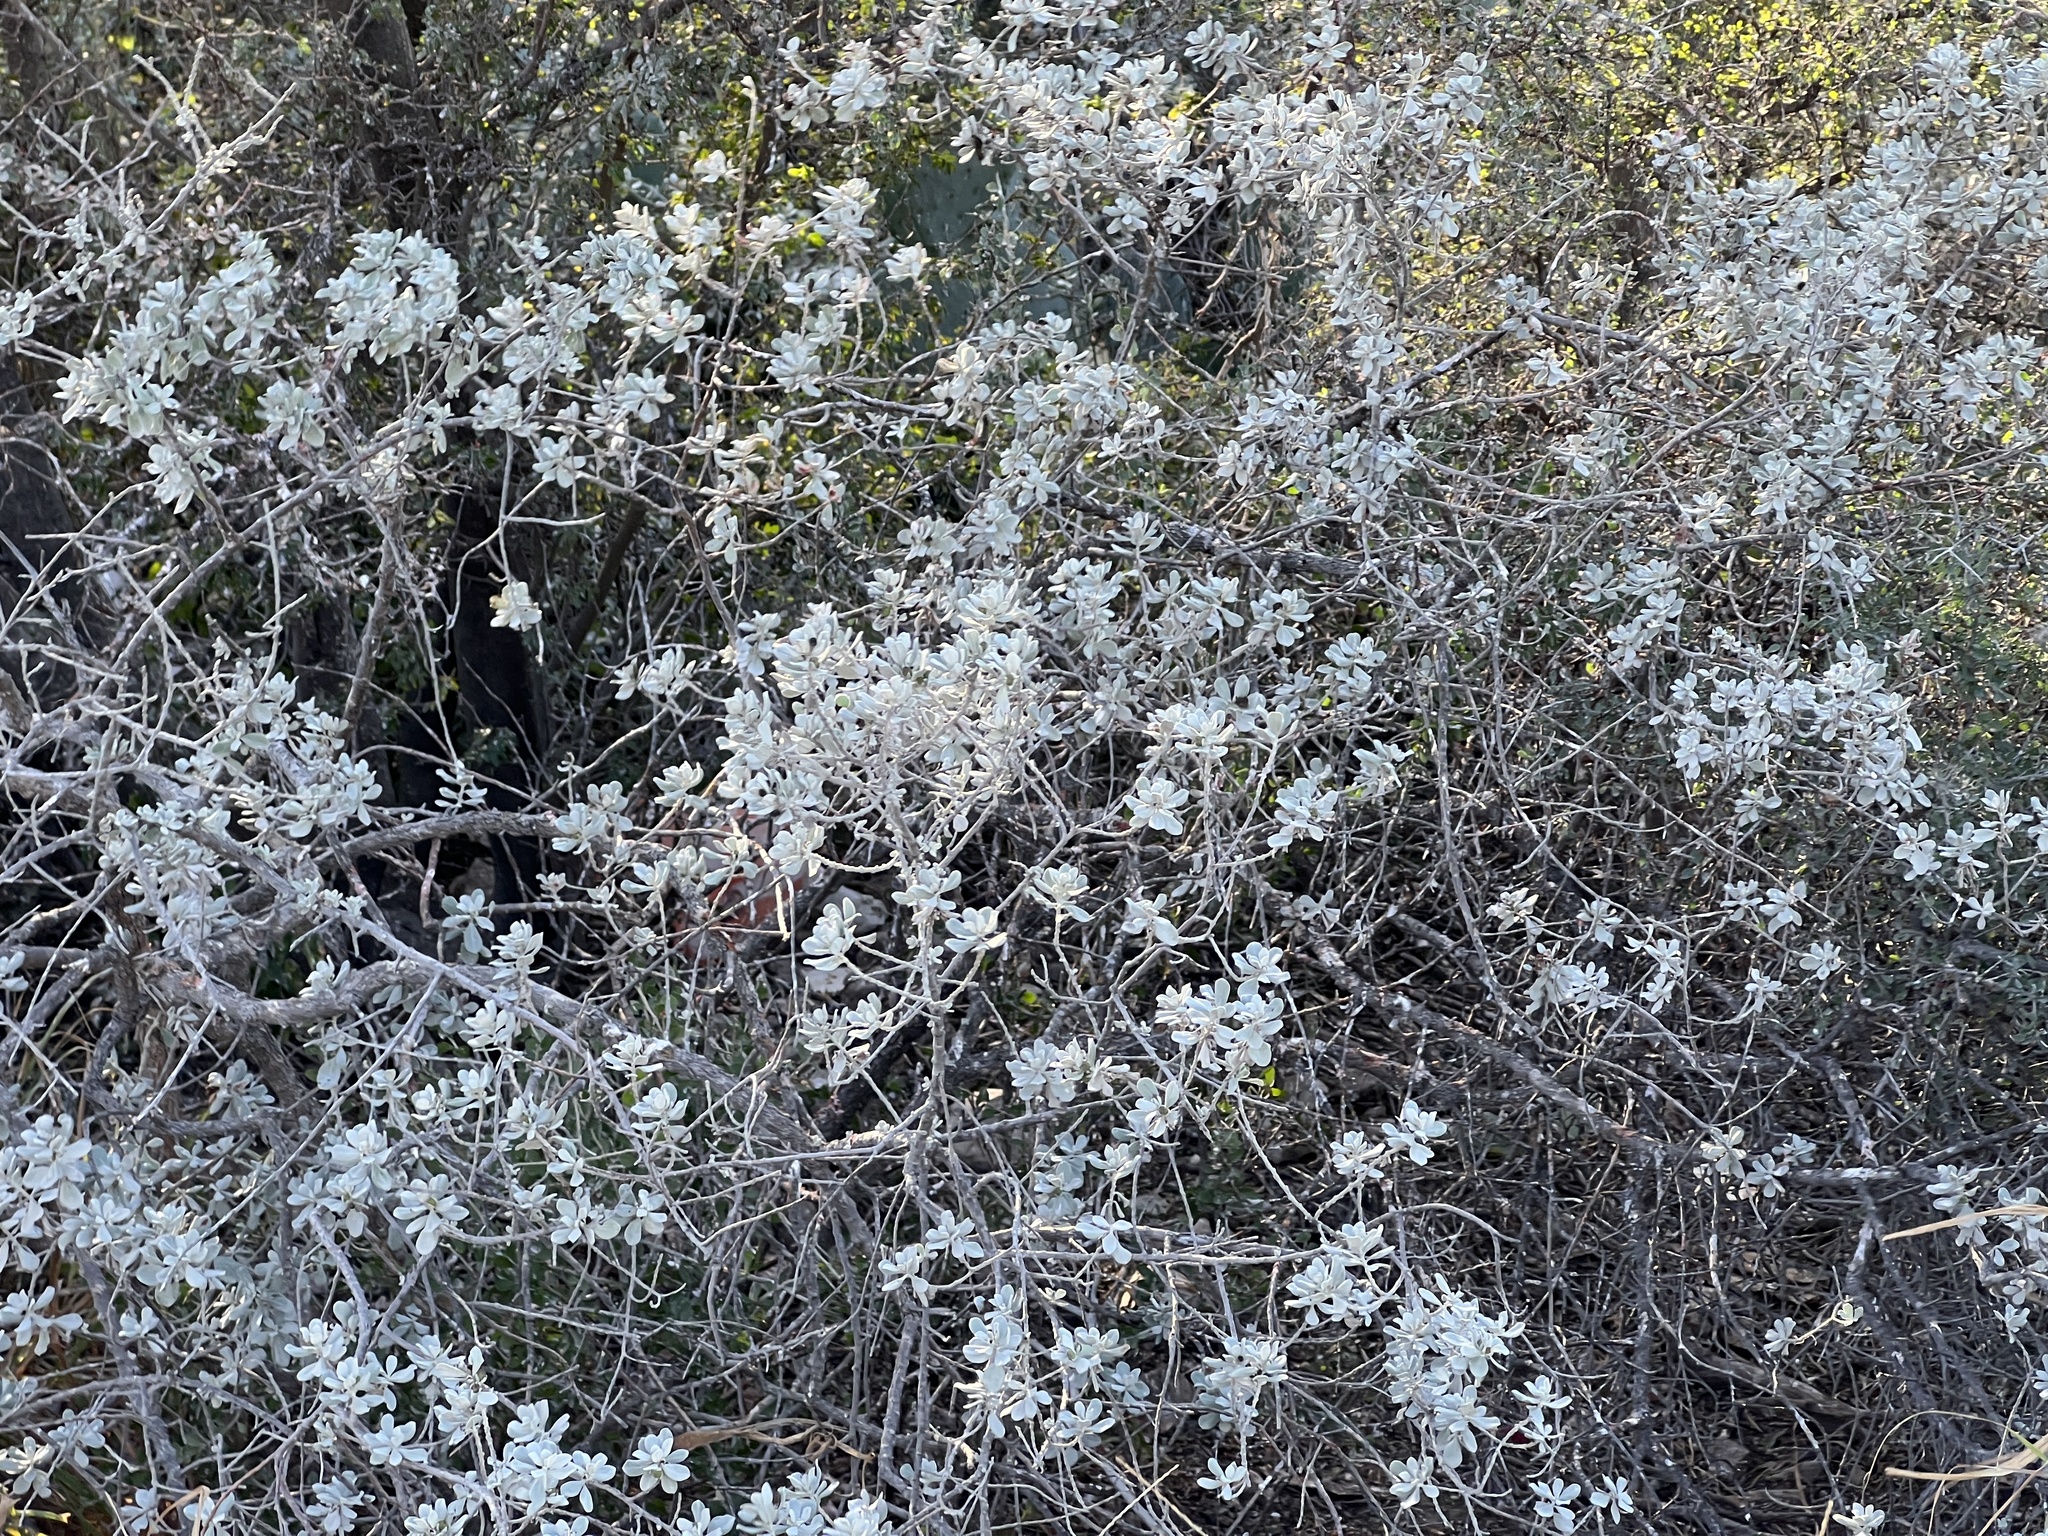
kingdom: Plantae
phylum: Tracheophyta
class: Magnoliopsida
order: Lamiales
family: Scrophulariaceae
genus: Leucophyllum
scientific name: Leucophyllum frutescens
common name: Texas silverleaf
